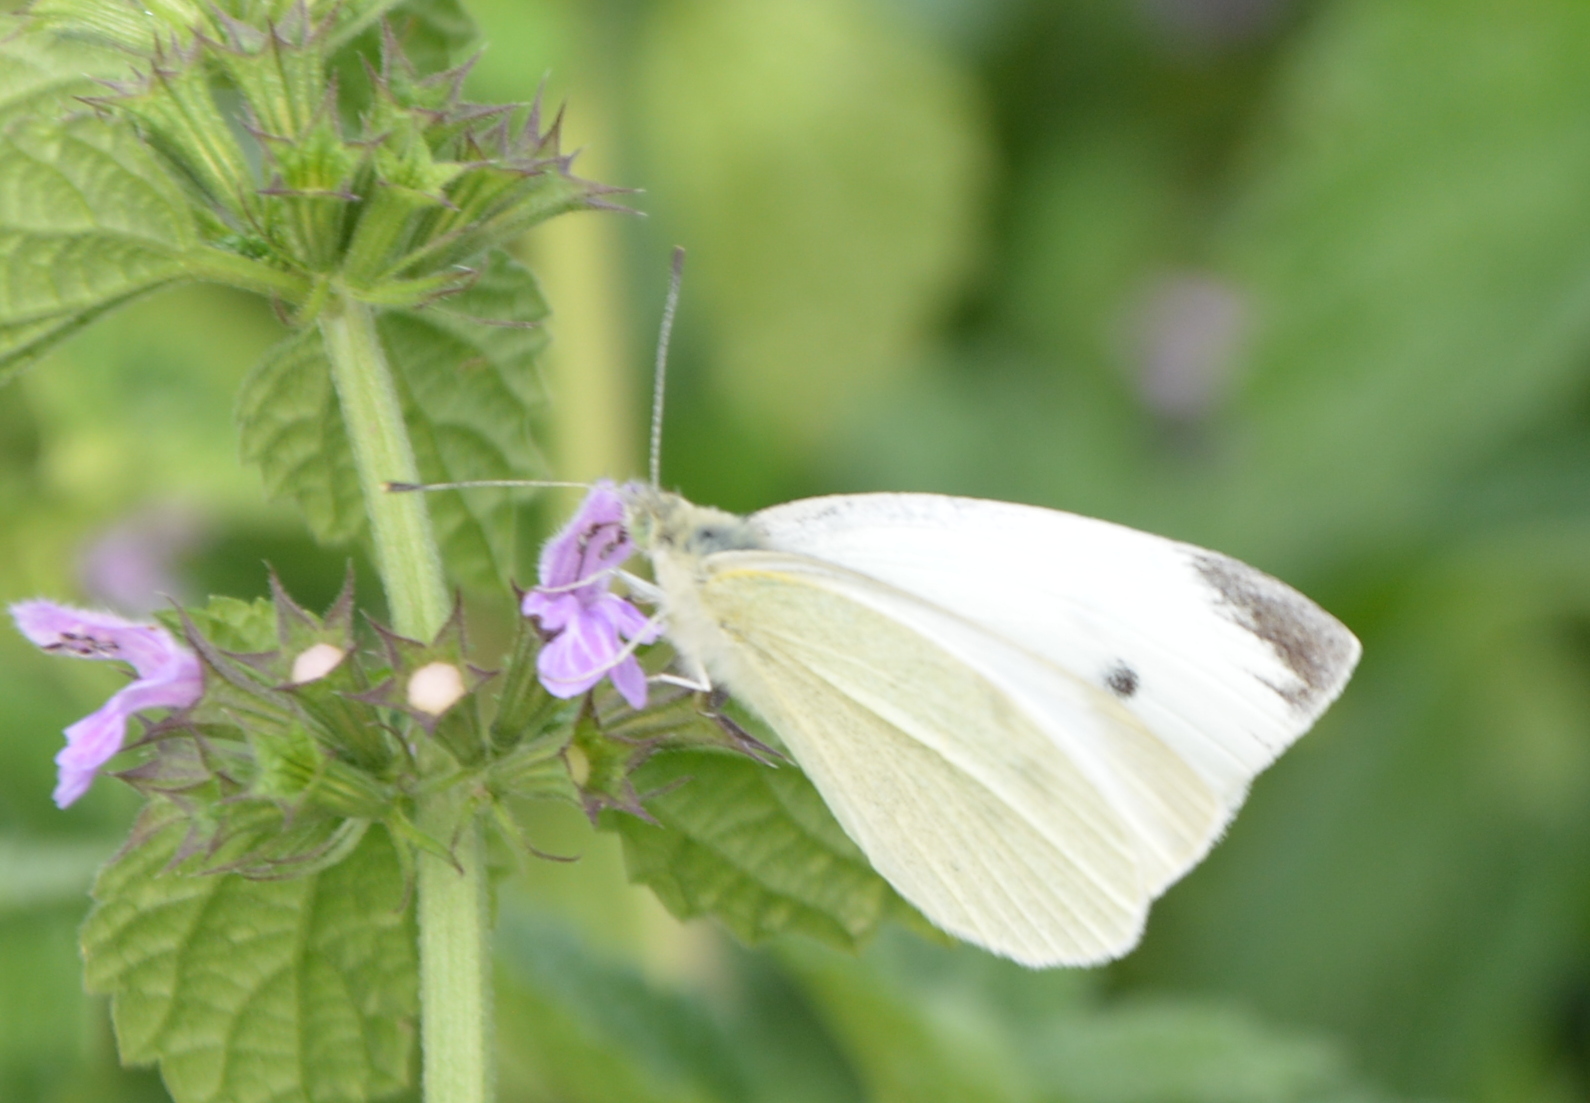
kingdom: Animalia
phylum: Arthropoda
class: Insecta
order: Lepidoptera
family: Pieridae
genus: Pieris
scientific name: Pieris rapae
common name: Small white
